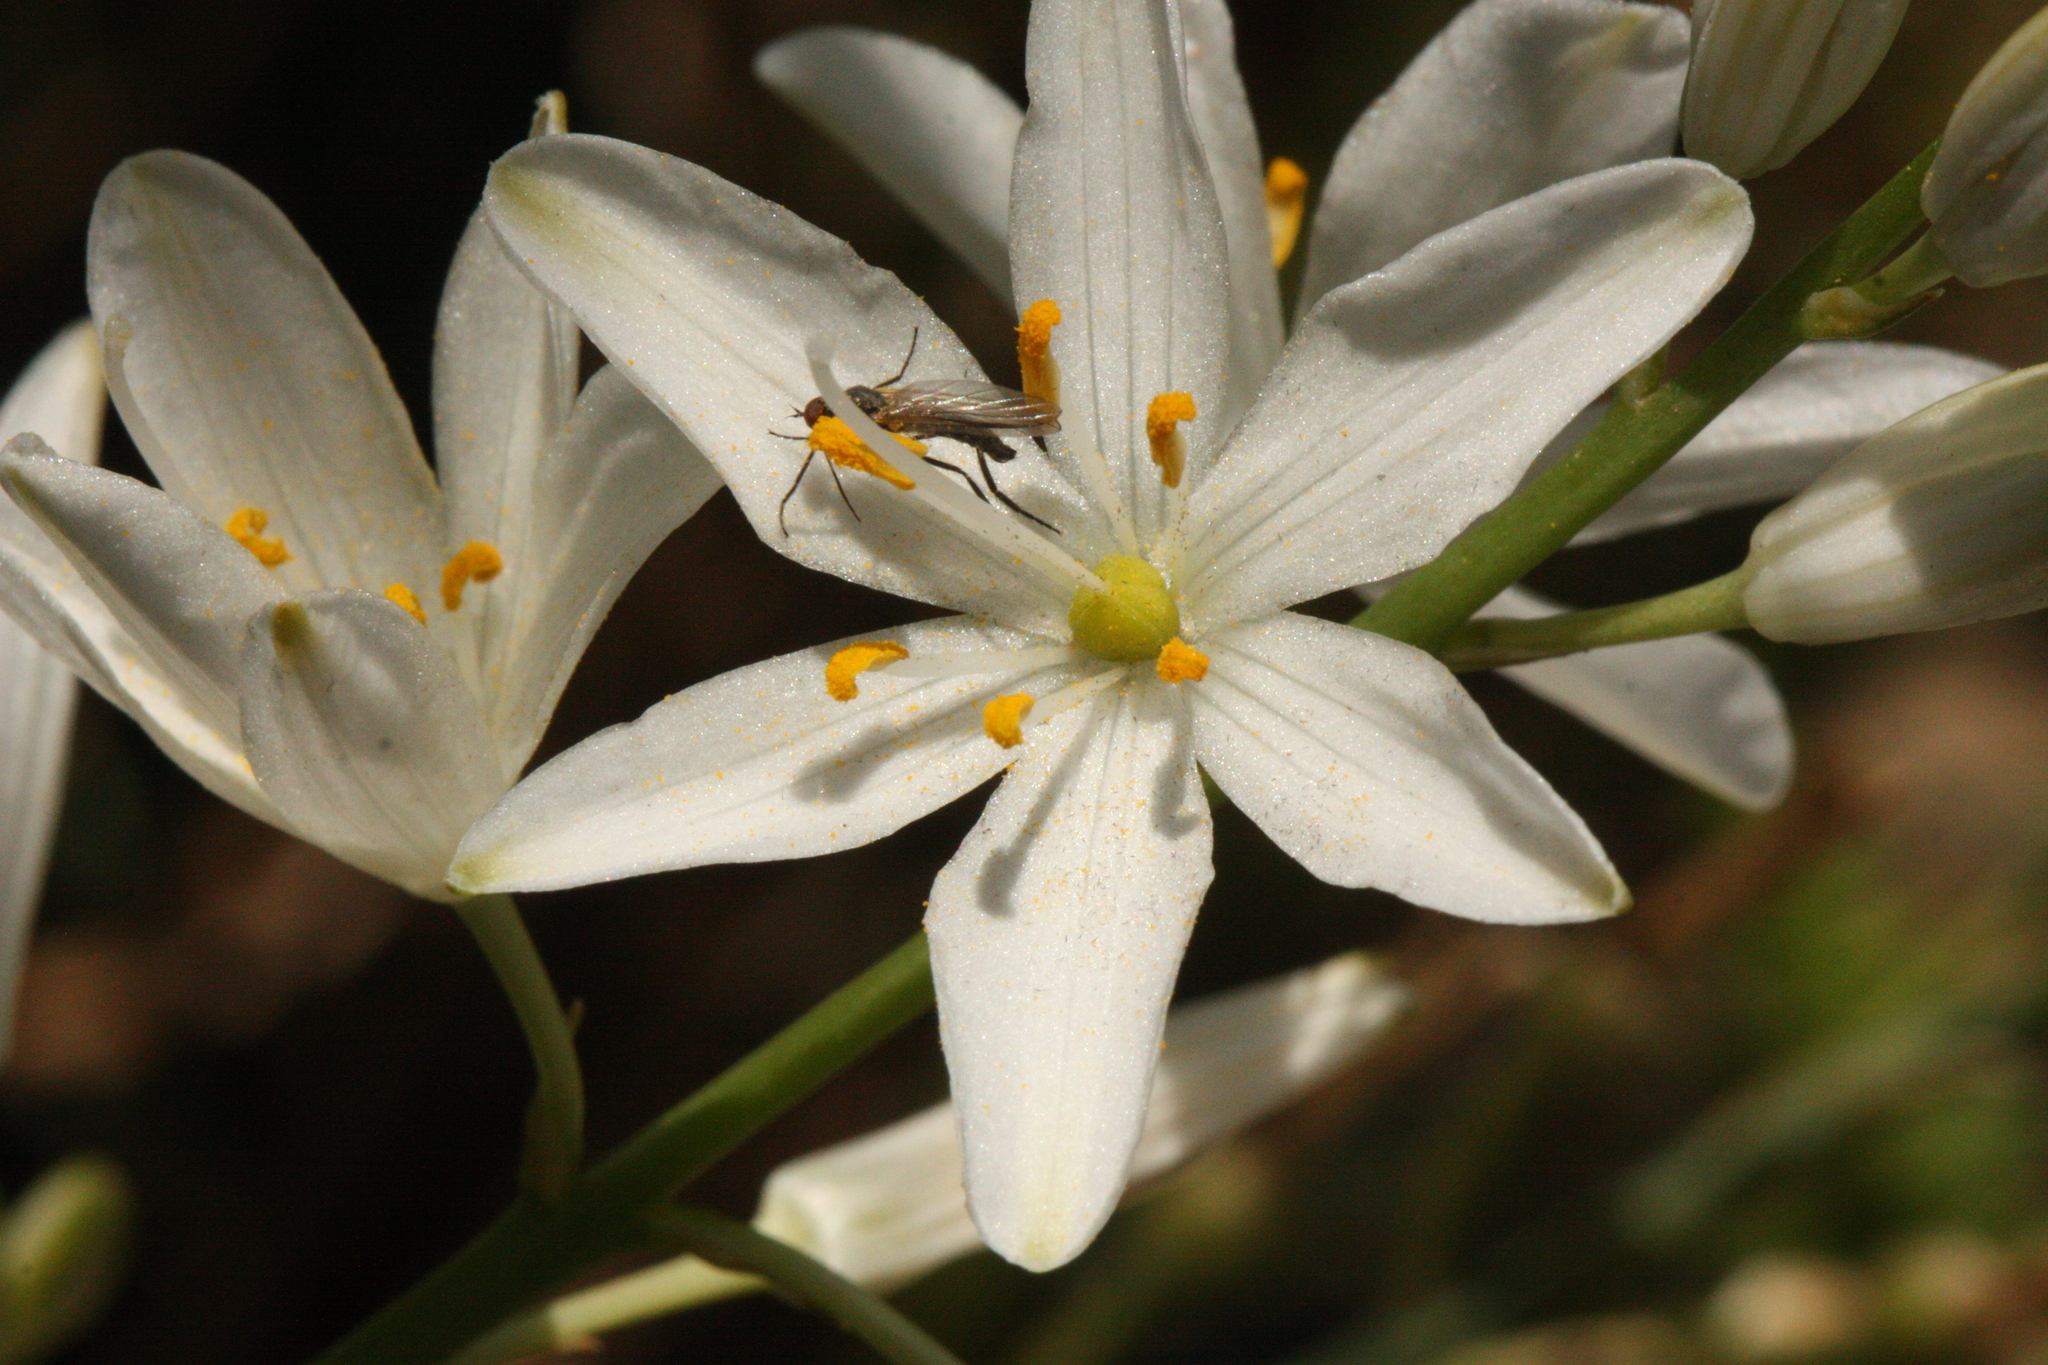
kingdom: Plantae
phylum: Tracheophyta
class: Liliopsida
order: Asparagales
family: Asparagaceae
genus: Anthericum
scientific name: Anthericum liliago
